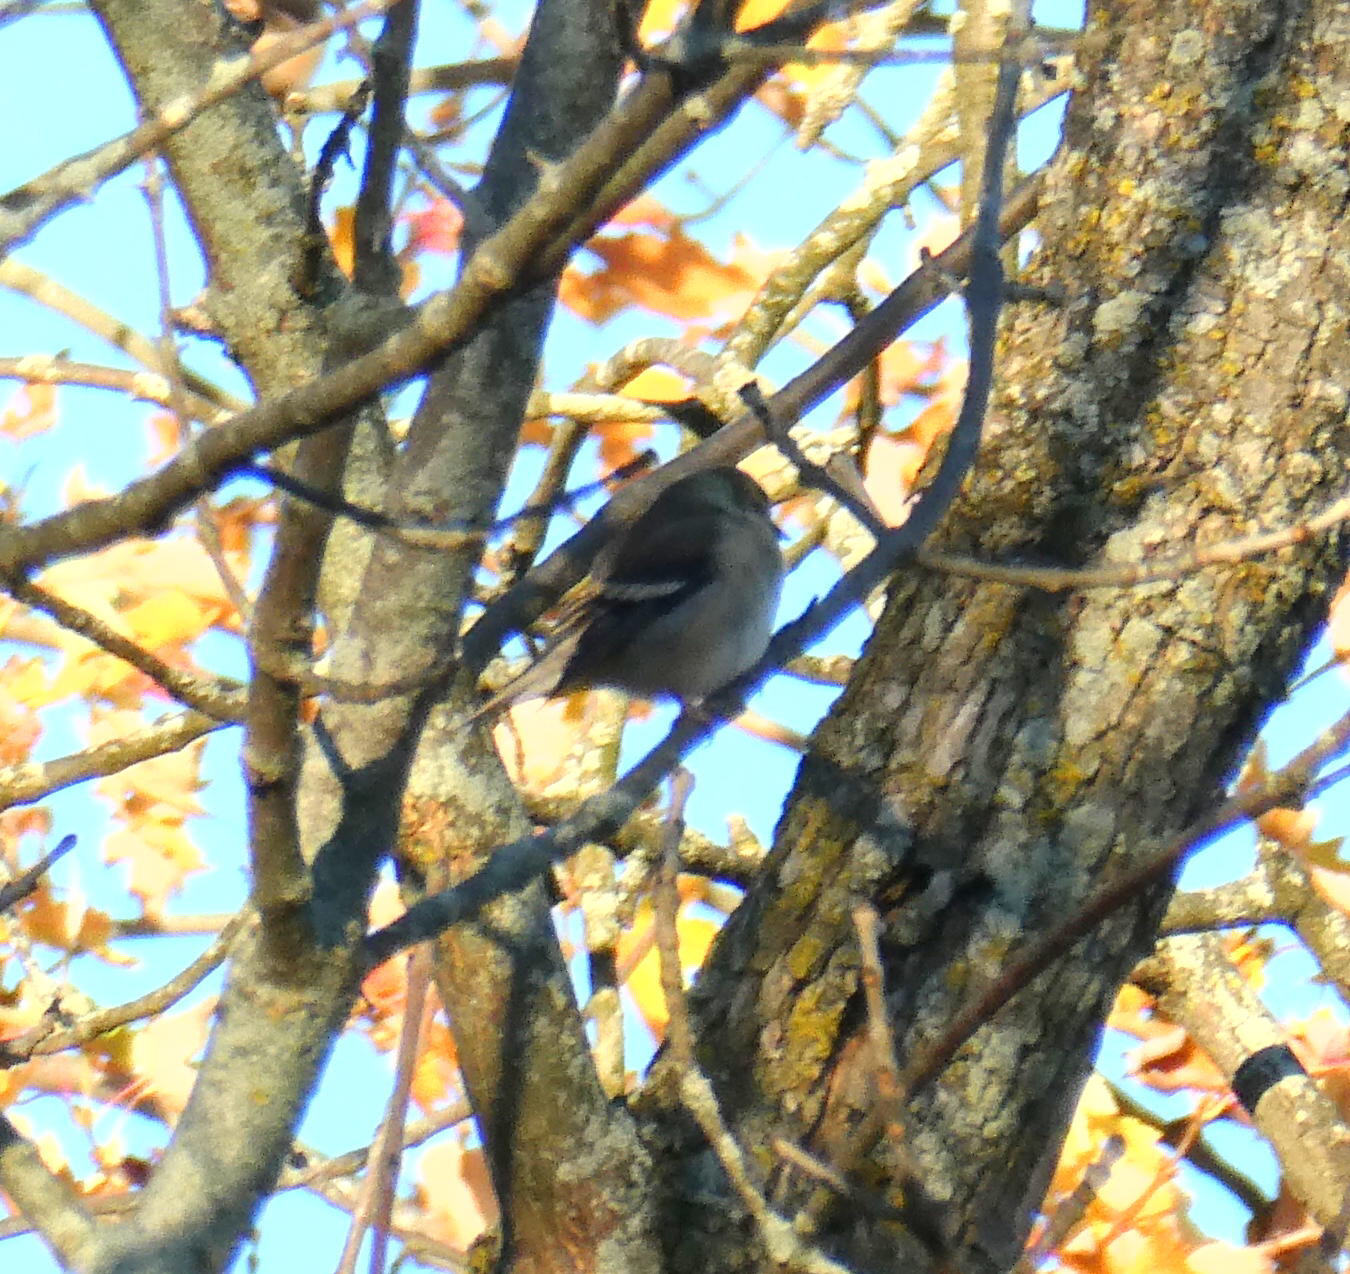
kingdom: Animalia
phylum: Chordata
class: Aves
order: Passeriformes
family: Fringillidae
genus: Spinus
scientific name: Spinus tristis
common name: American goldfinch
